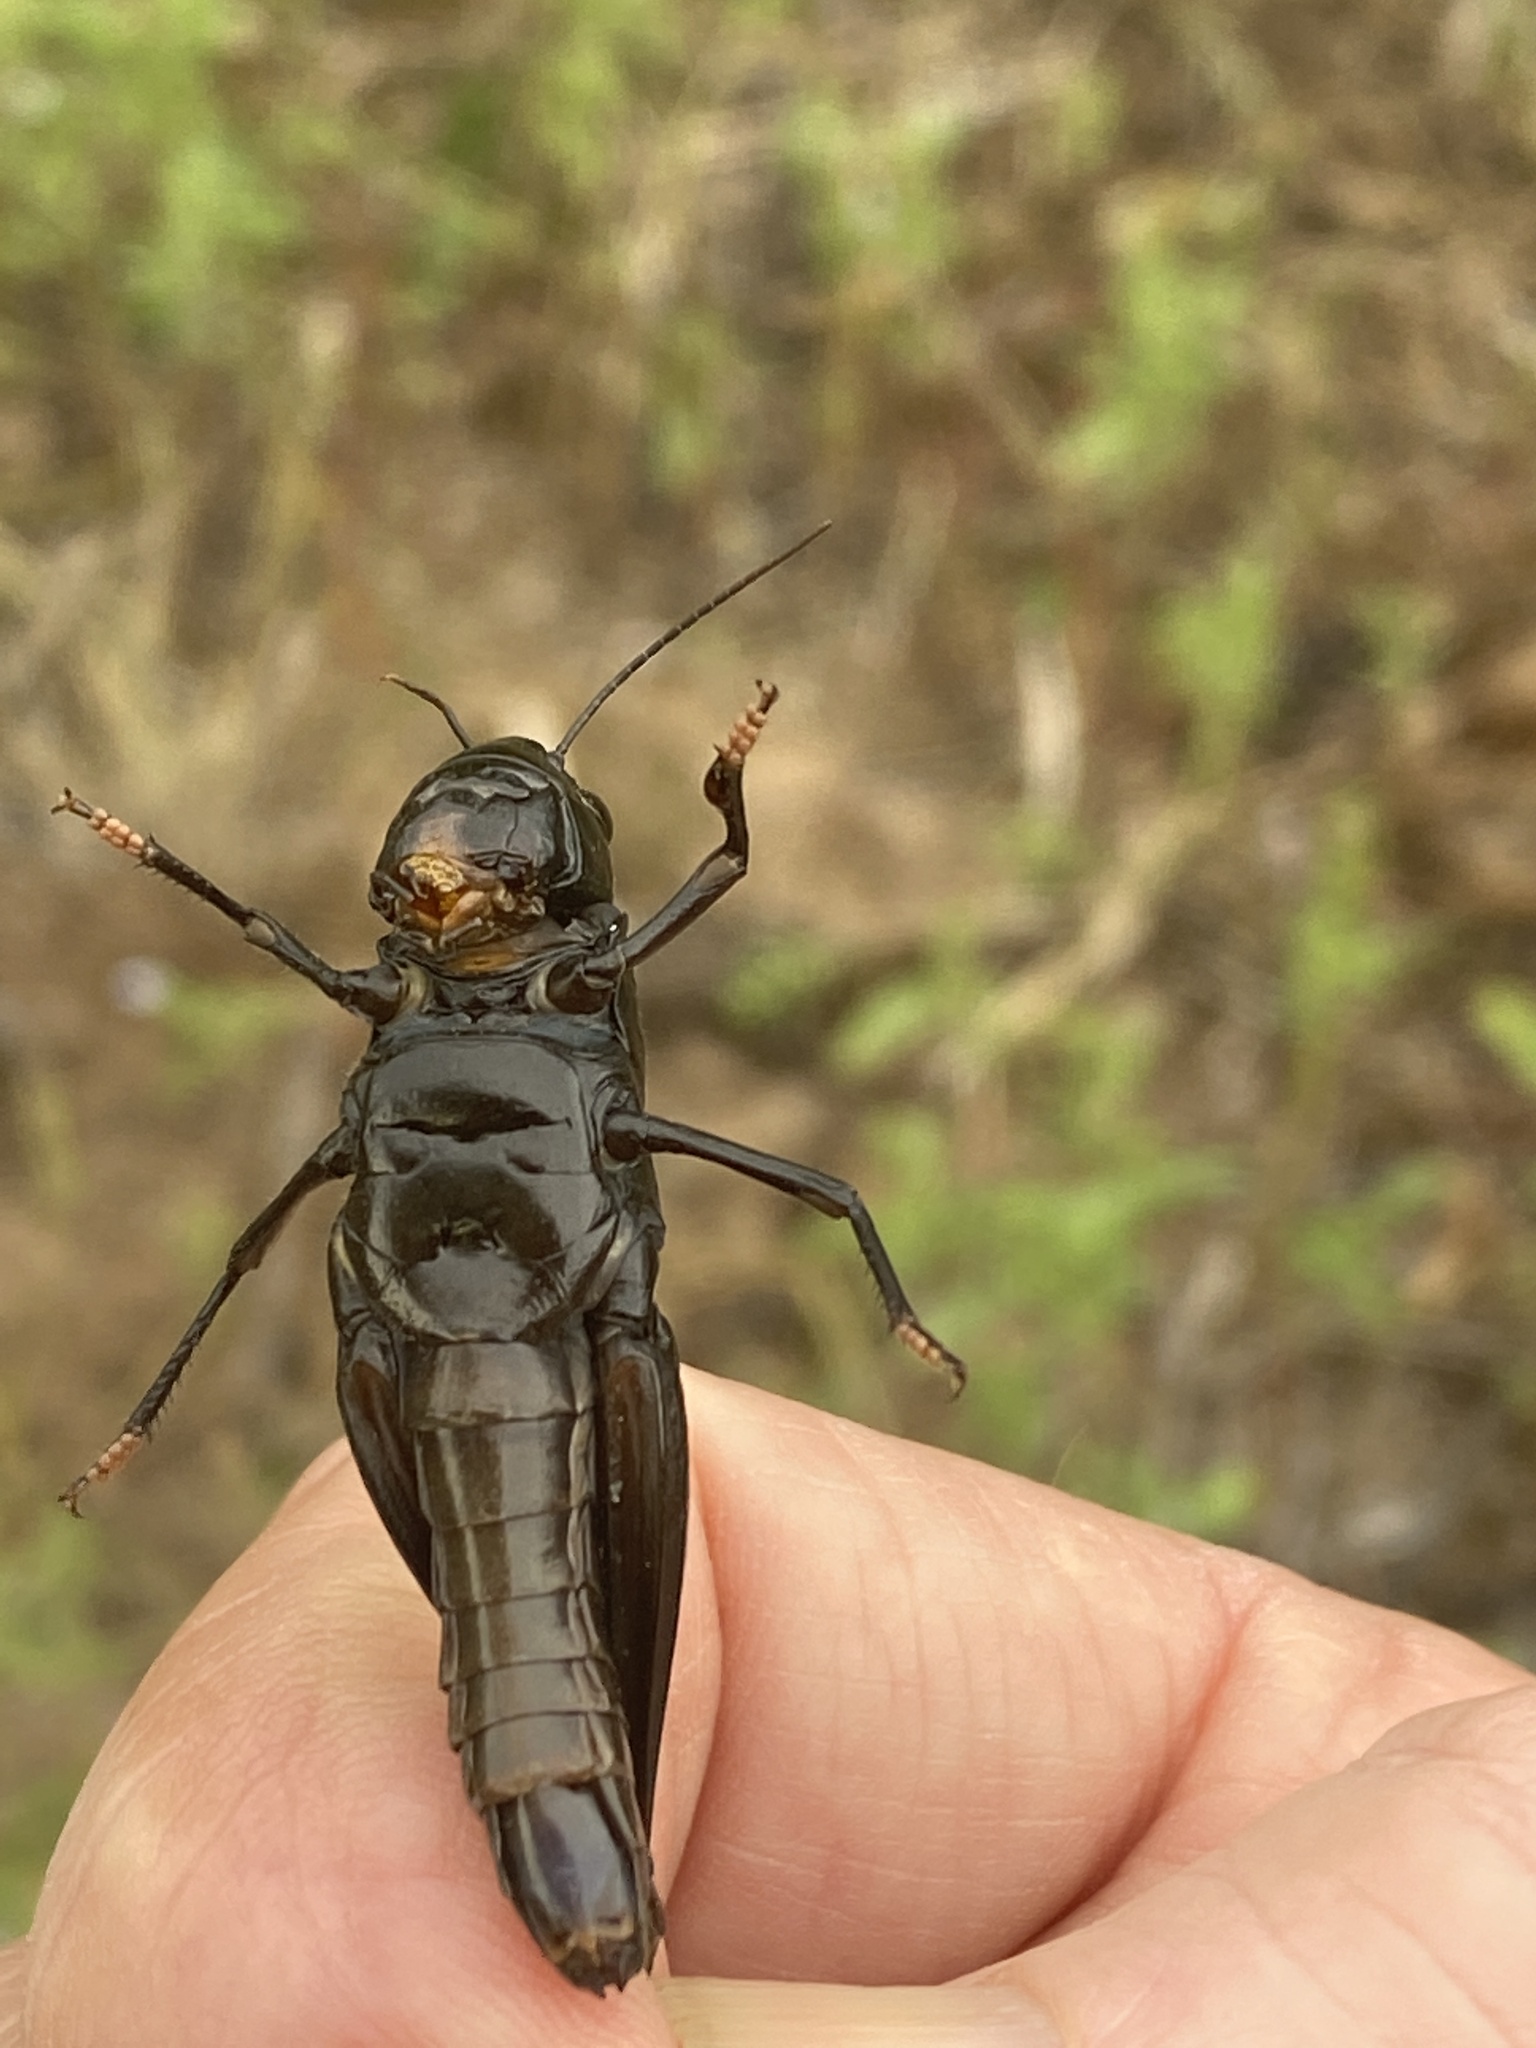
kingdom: Animalia
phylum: Arthropoda
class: Insecta
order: Orthoptera
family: Acrididae
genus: Boopedon
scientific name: Boopedon nubilum
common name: Ebony grasshopper
